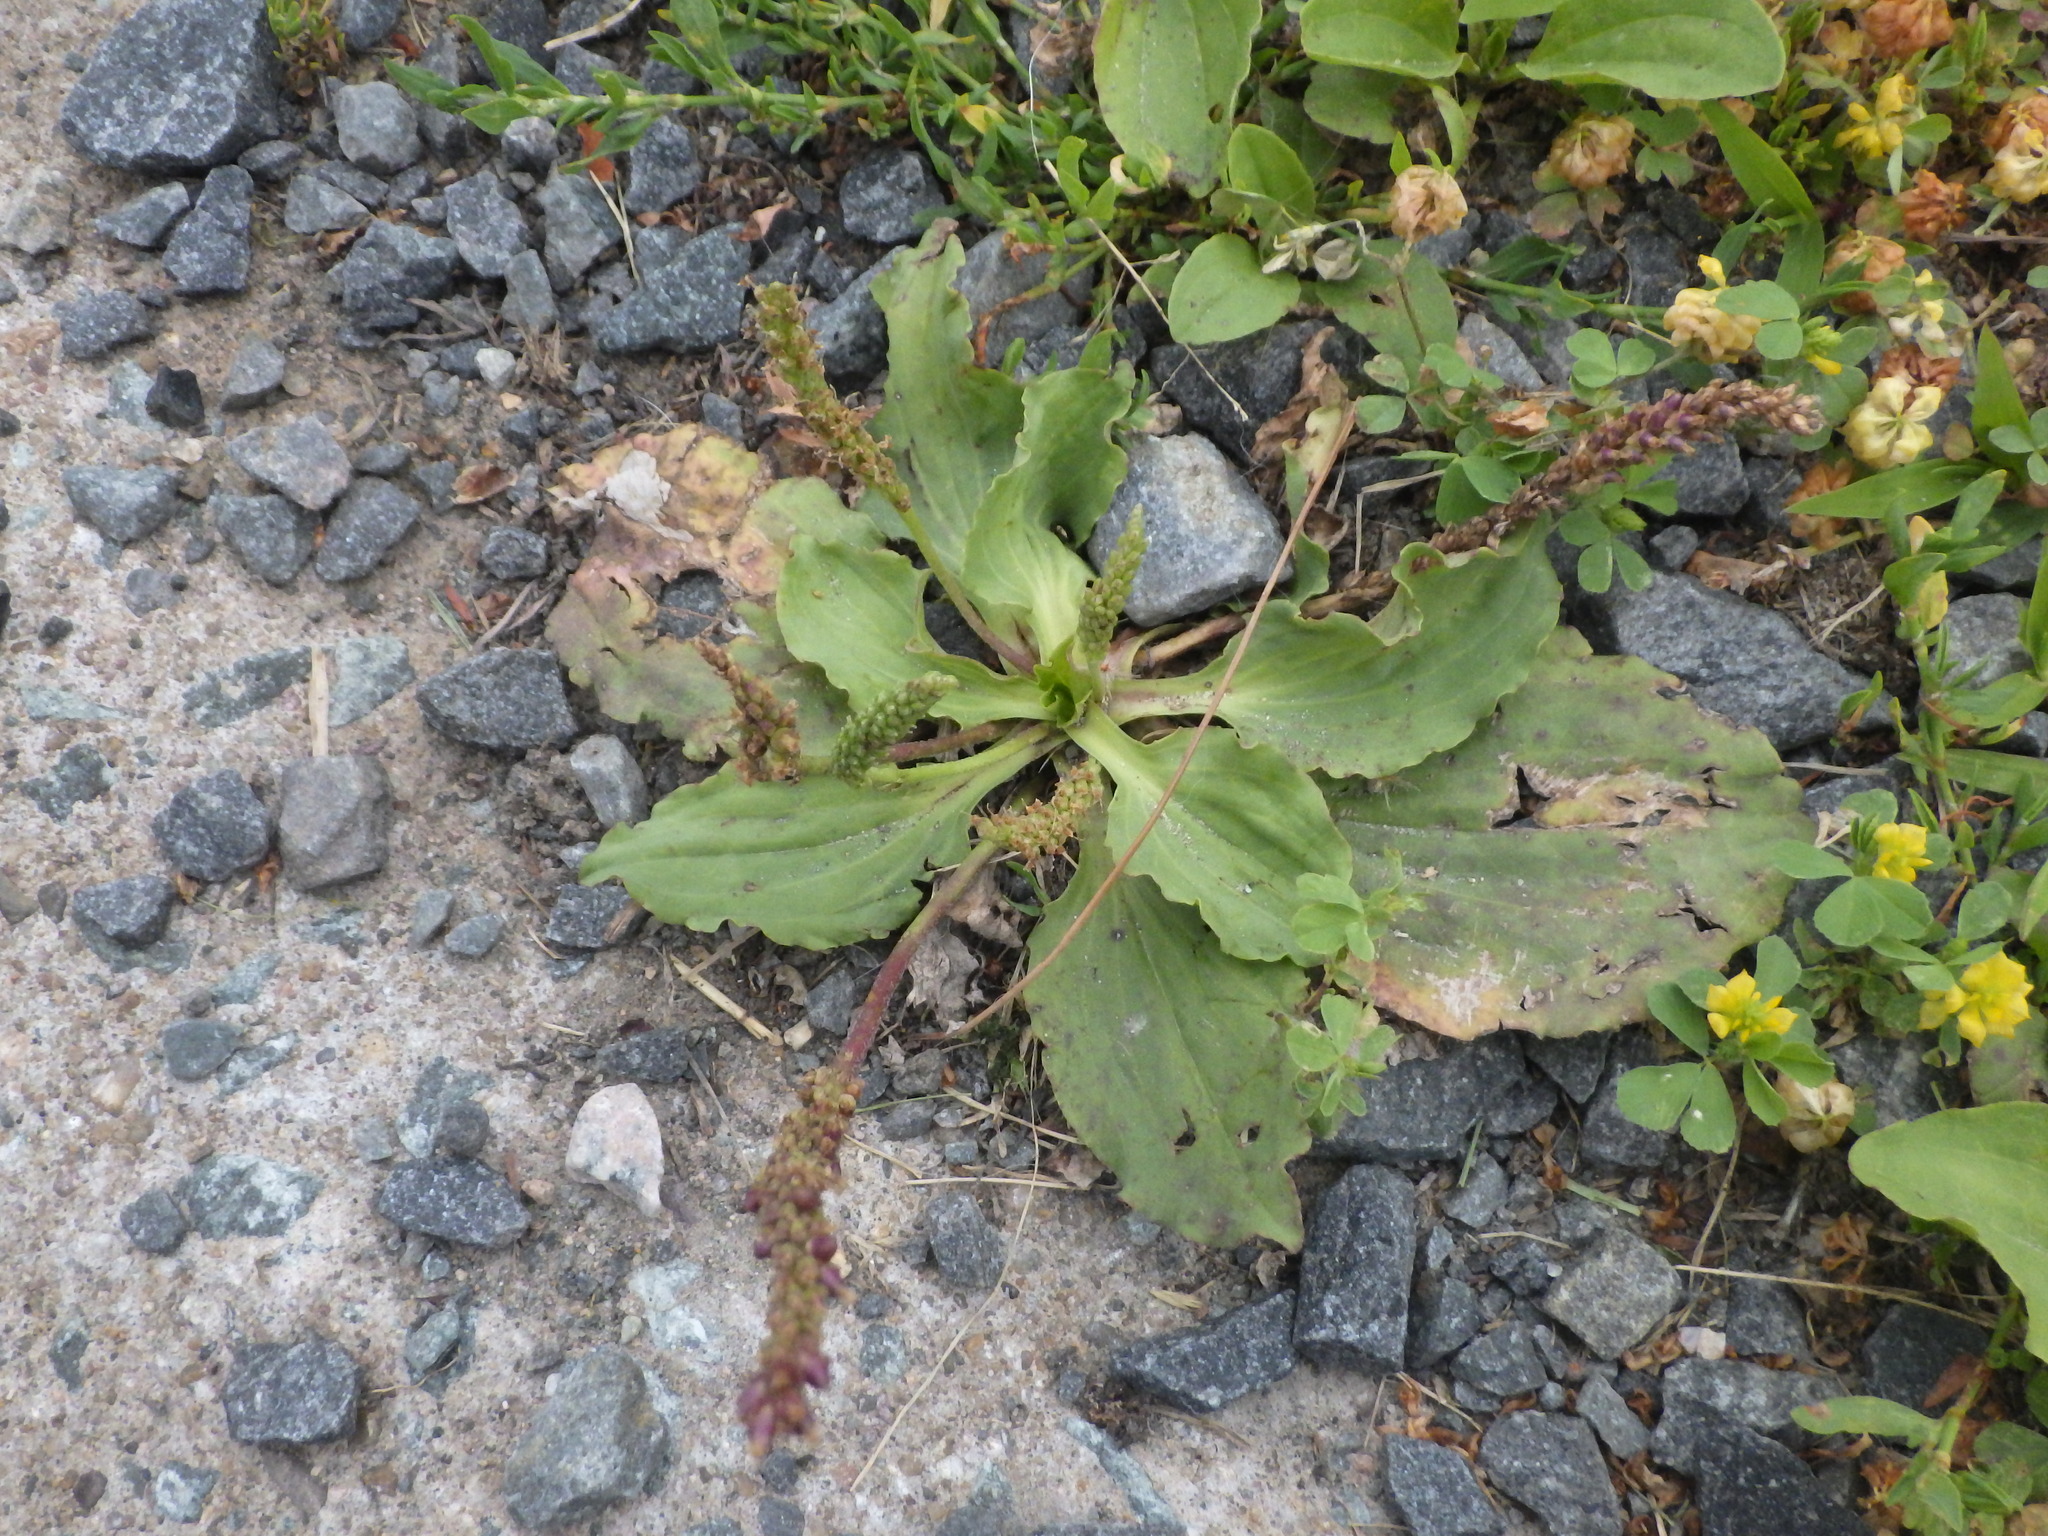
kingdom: Plantae
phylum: Tracheophyta
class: Magnoliopsida
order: Lamiales
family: Plantaginaceae
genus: Plantago
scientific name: Plantago major
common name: Common plantain
